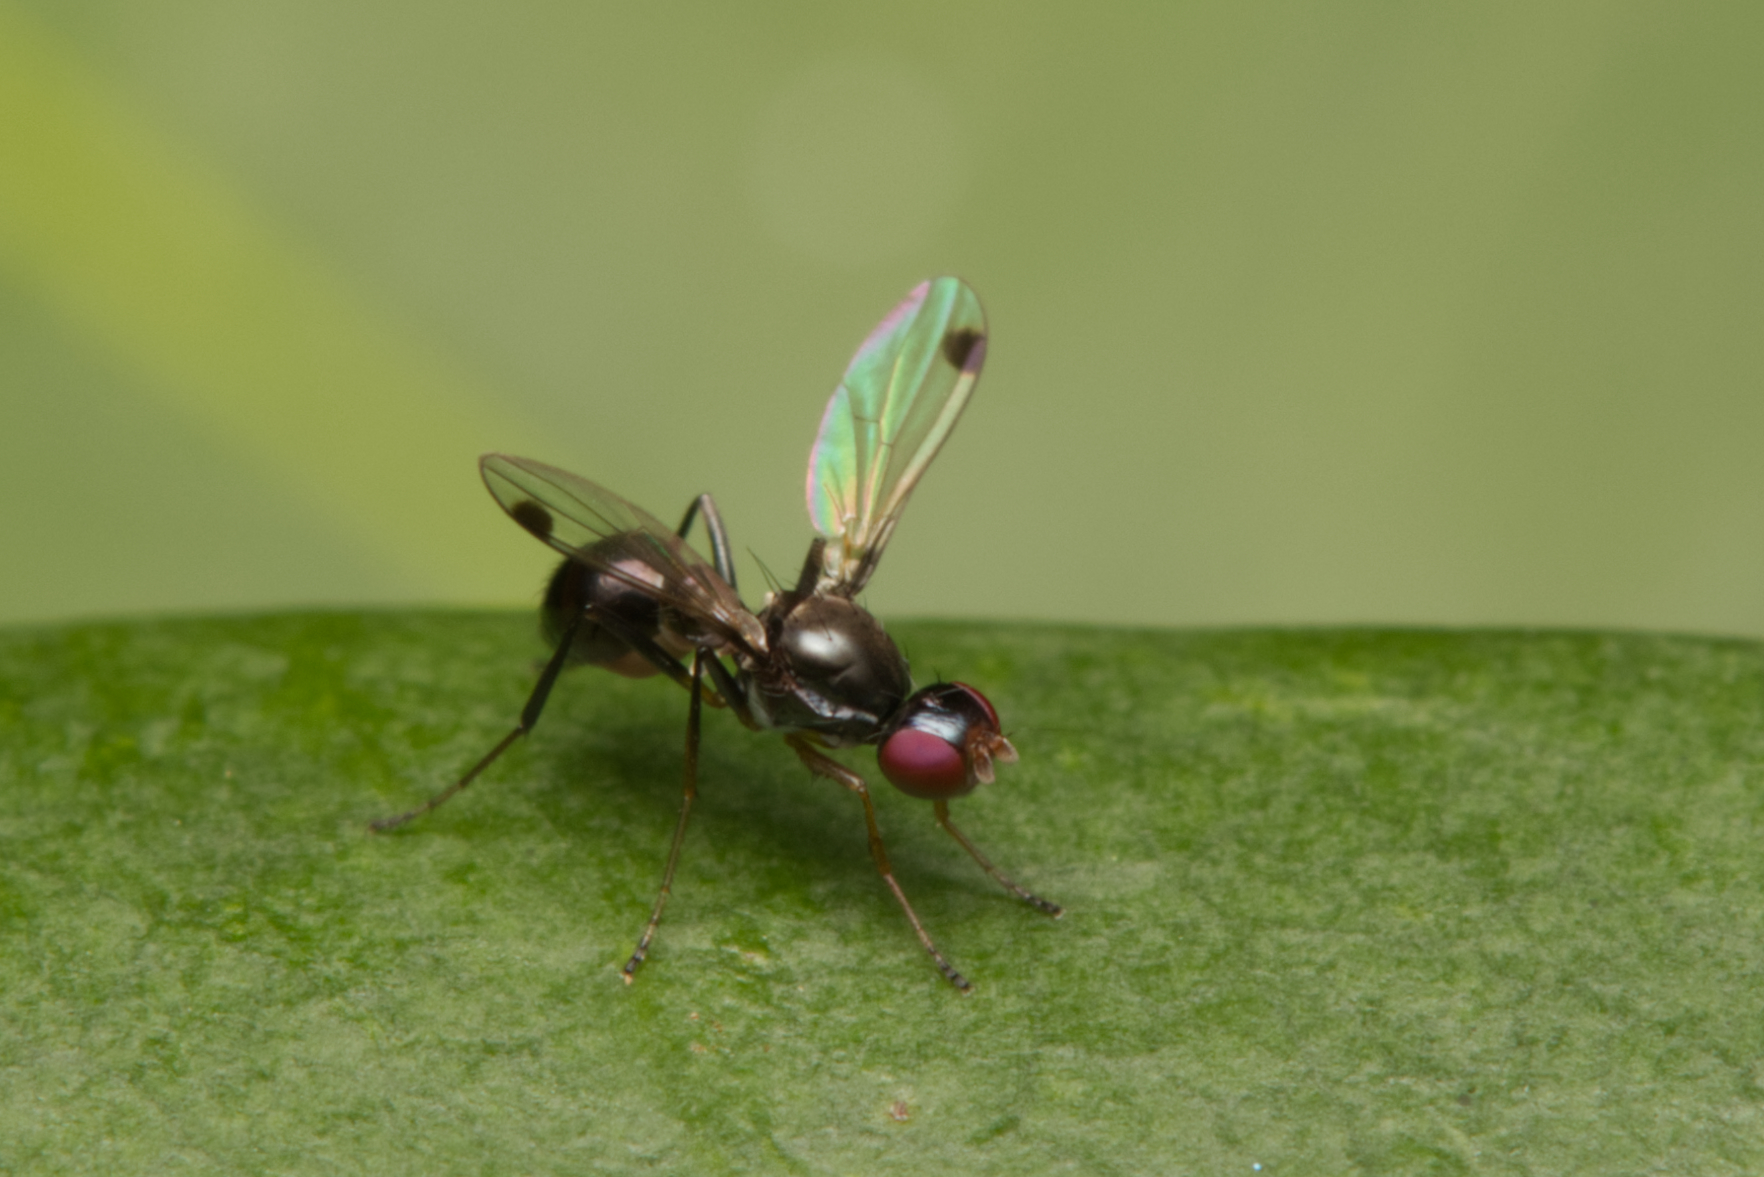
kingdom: Animalia
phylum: Arthropoda
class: Insecta
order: Diptera
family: Sepsidae
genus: Parapalaeosepsis
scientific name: Parapalaeosepsis plebeia
